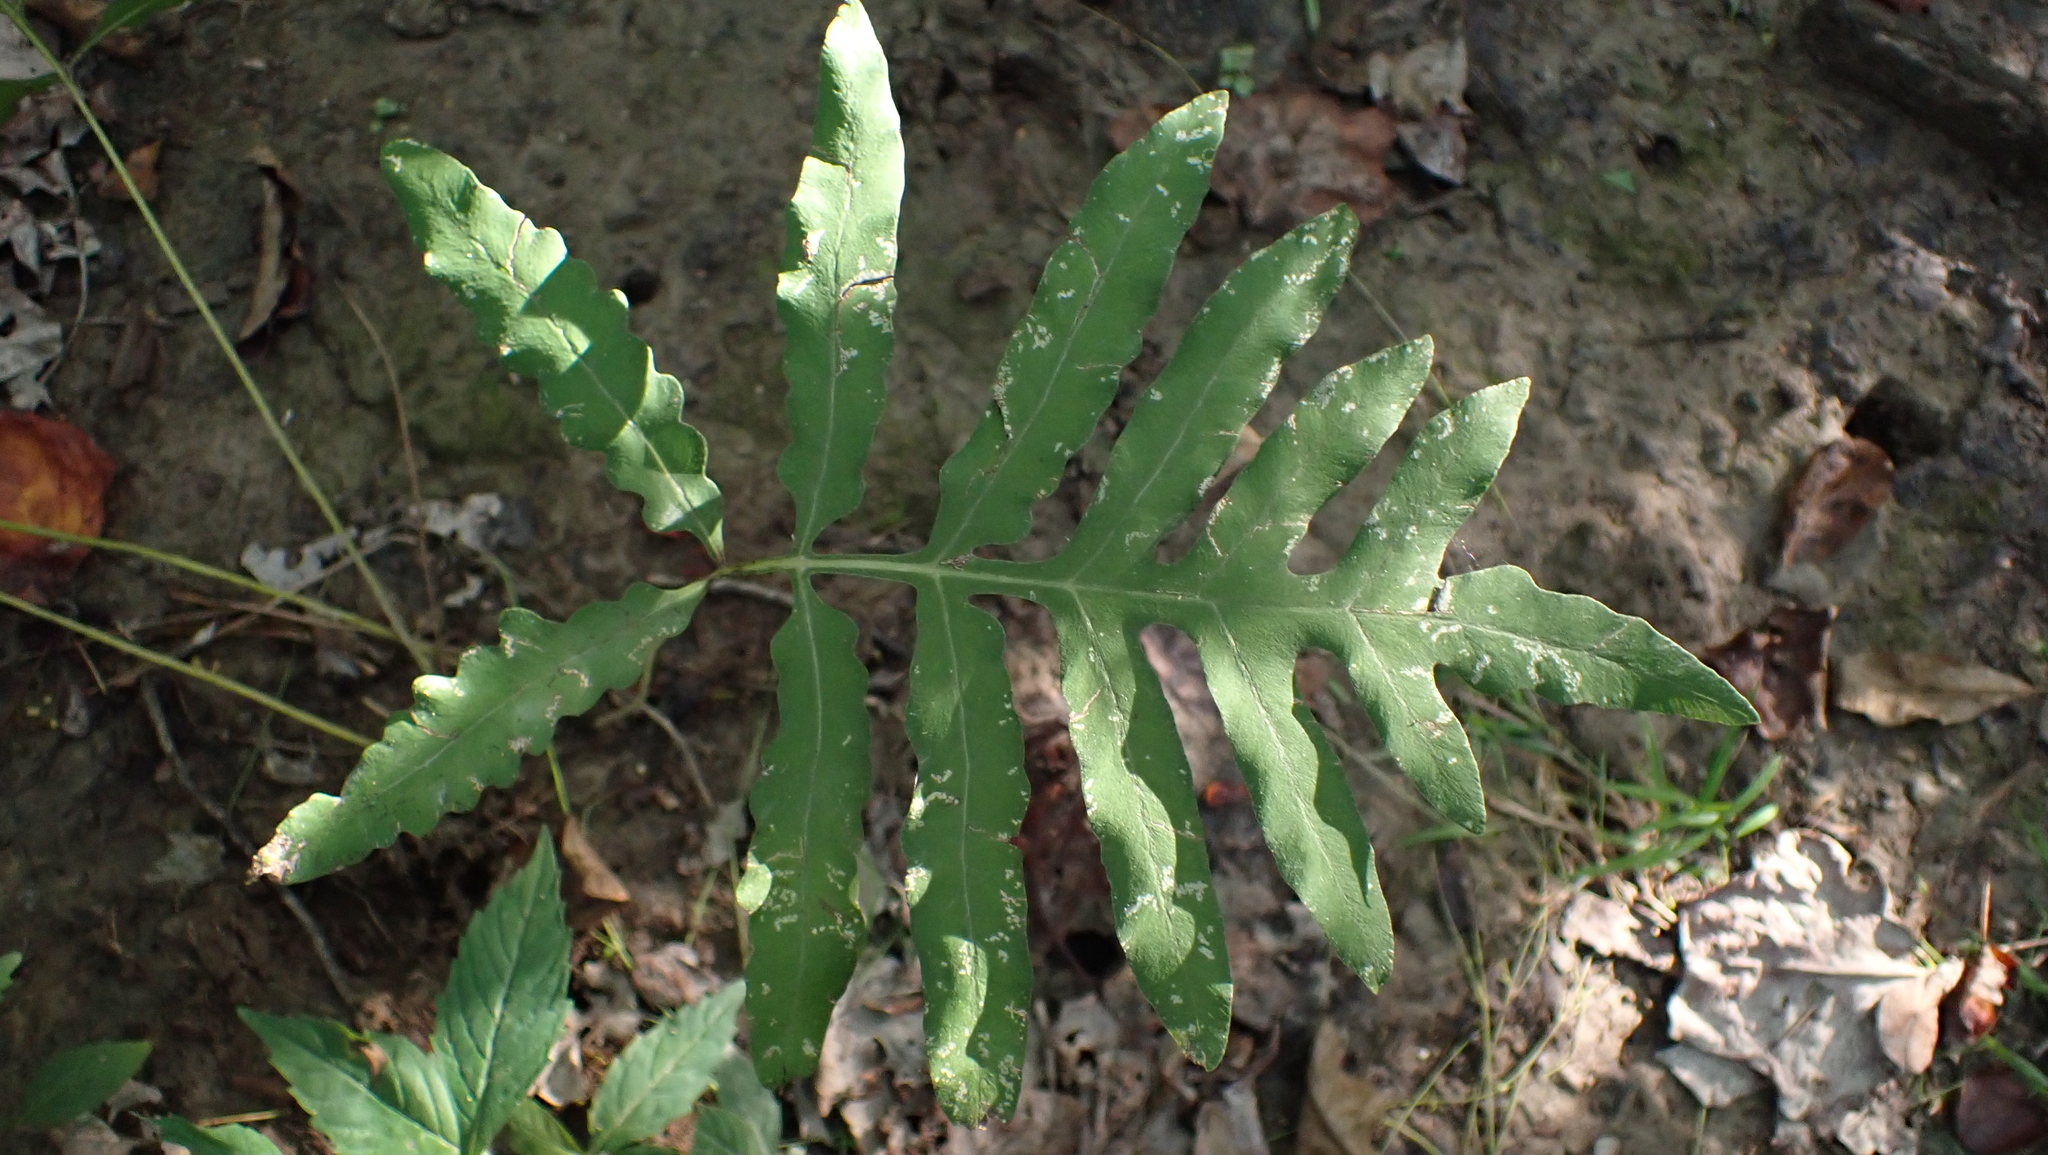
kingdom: Plantae
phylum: Tracheophyta
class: Polypodiopsida
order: Polypodiales
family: Onocleaceae
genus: Onoclea
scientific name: Onoclea sensibilis
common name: Sensitive fern
